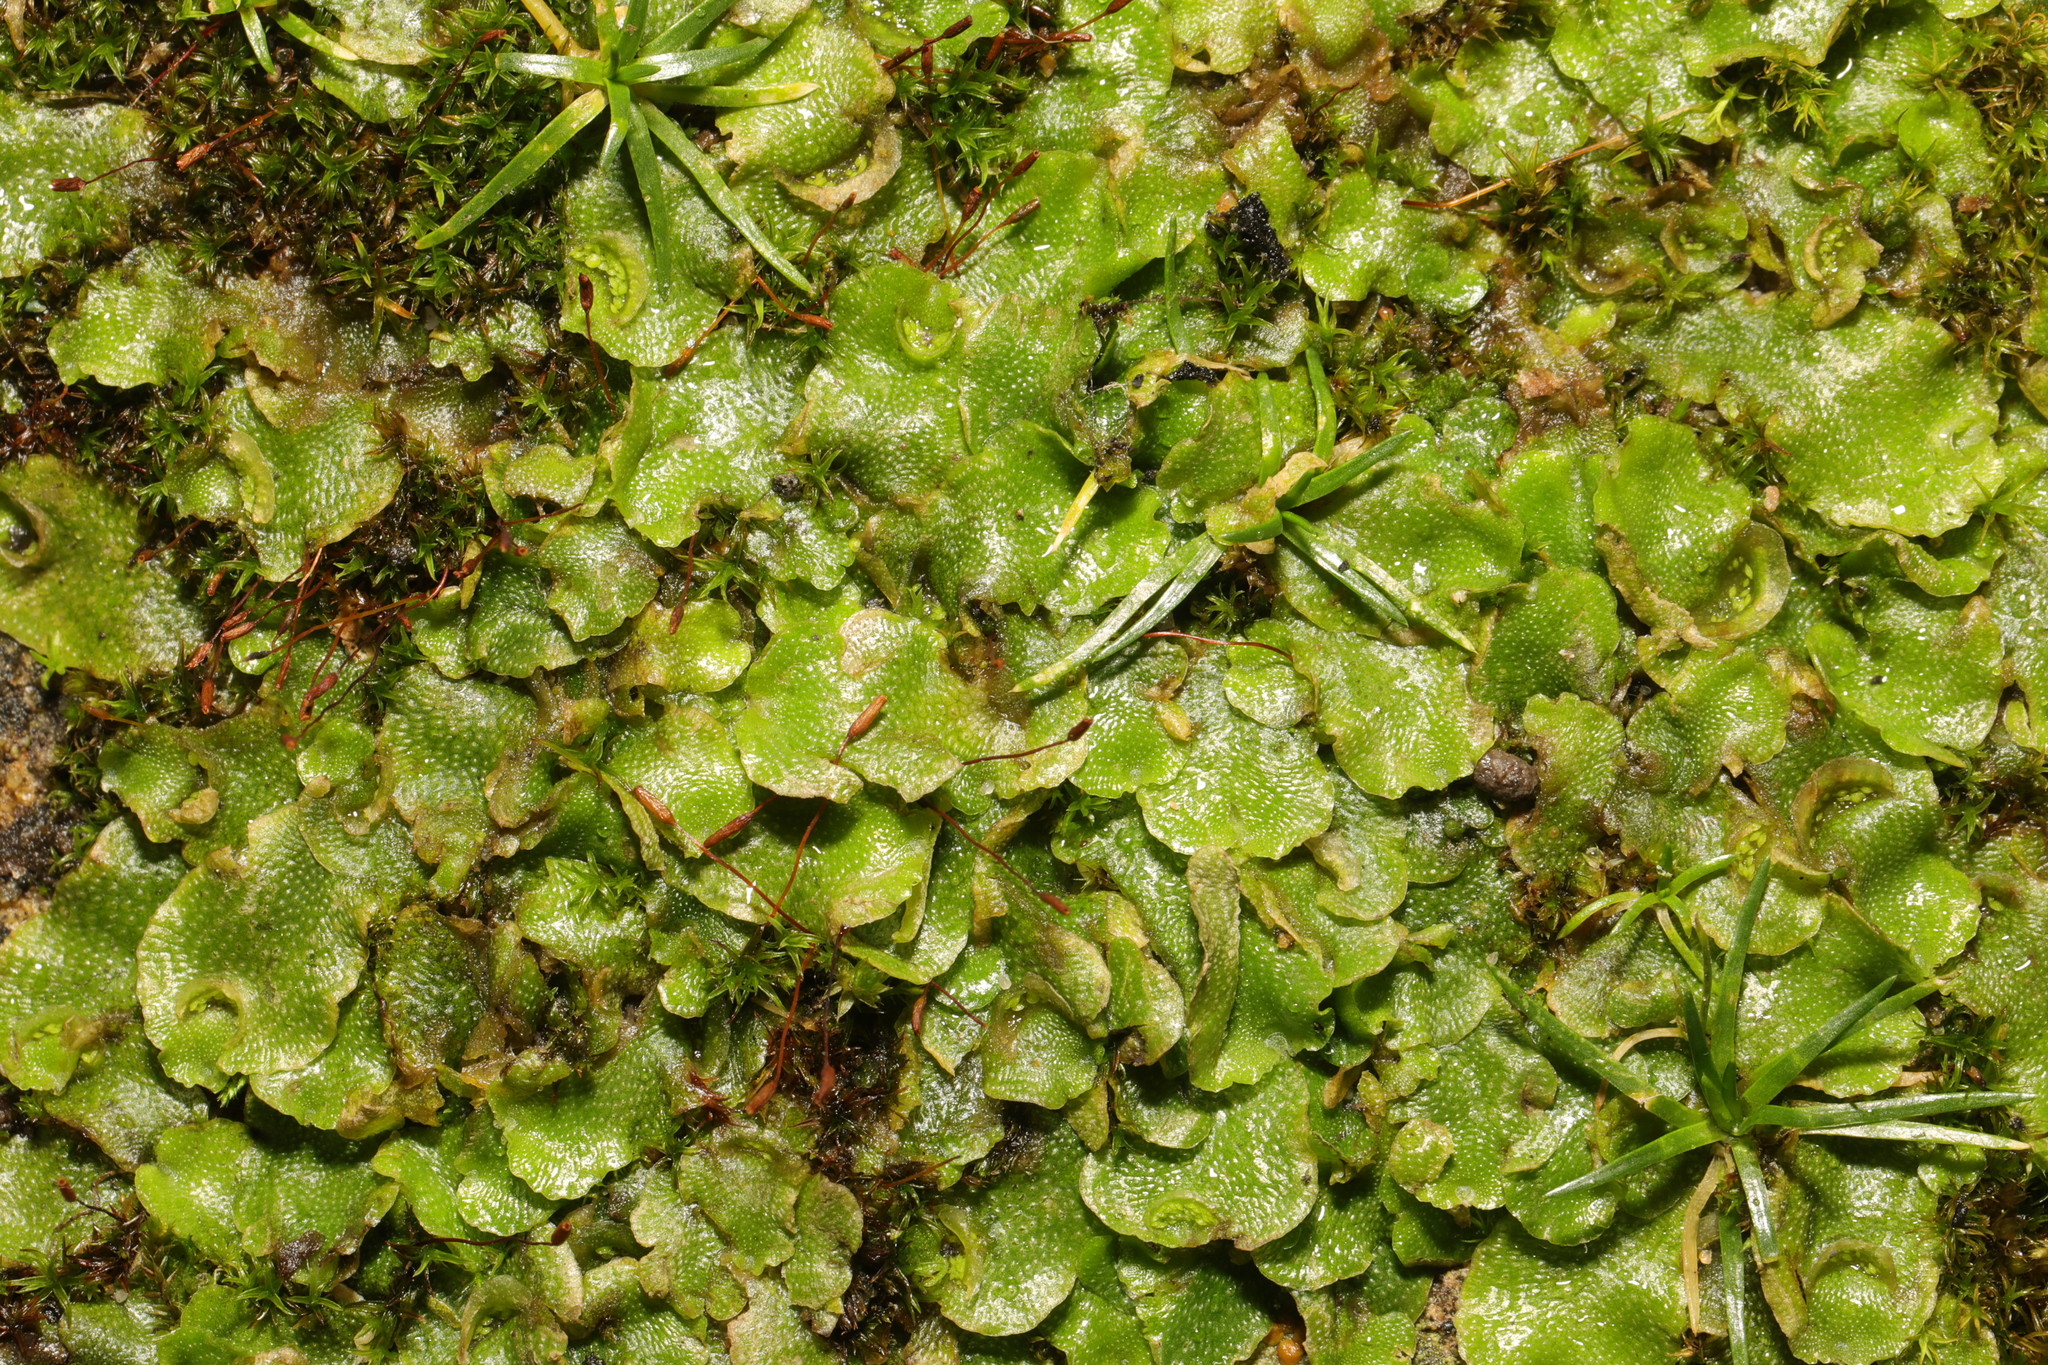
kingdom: Plantae
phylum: Marchantiophyta
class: Marchantiopsida
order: Lunulariales
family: Lunulariaceae
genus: Lunularia
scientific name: Lunularia cruciata
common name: Crescent-cup liverwort
